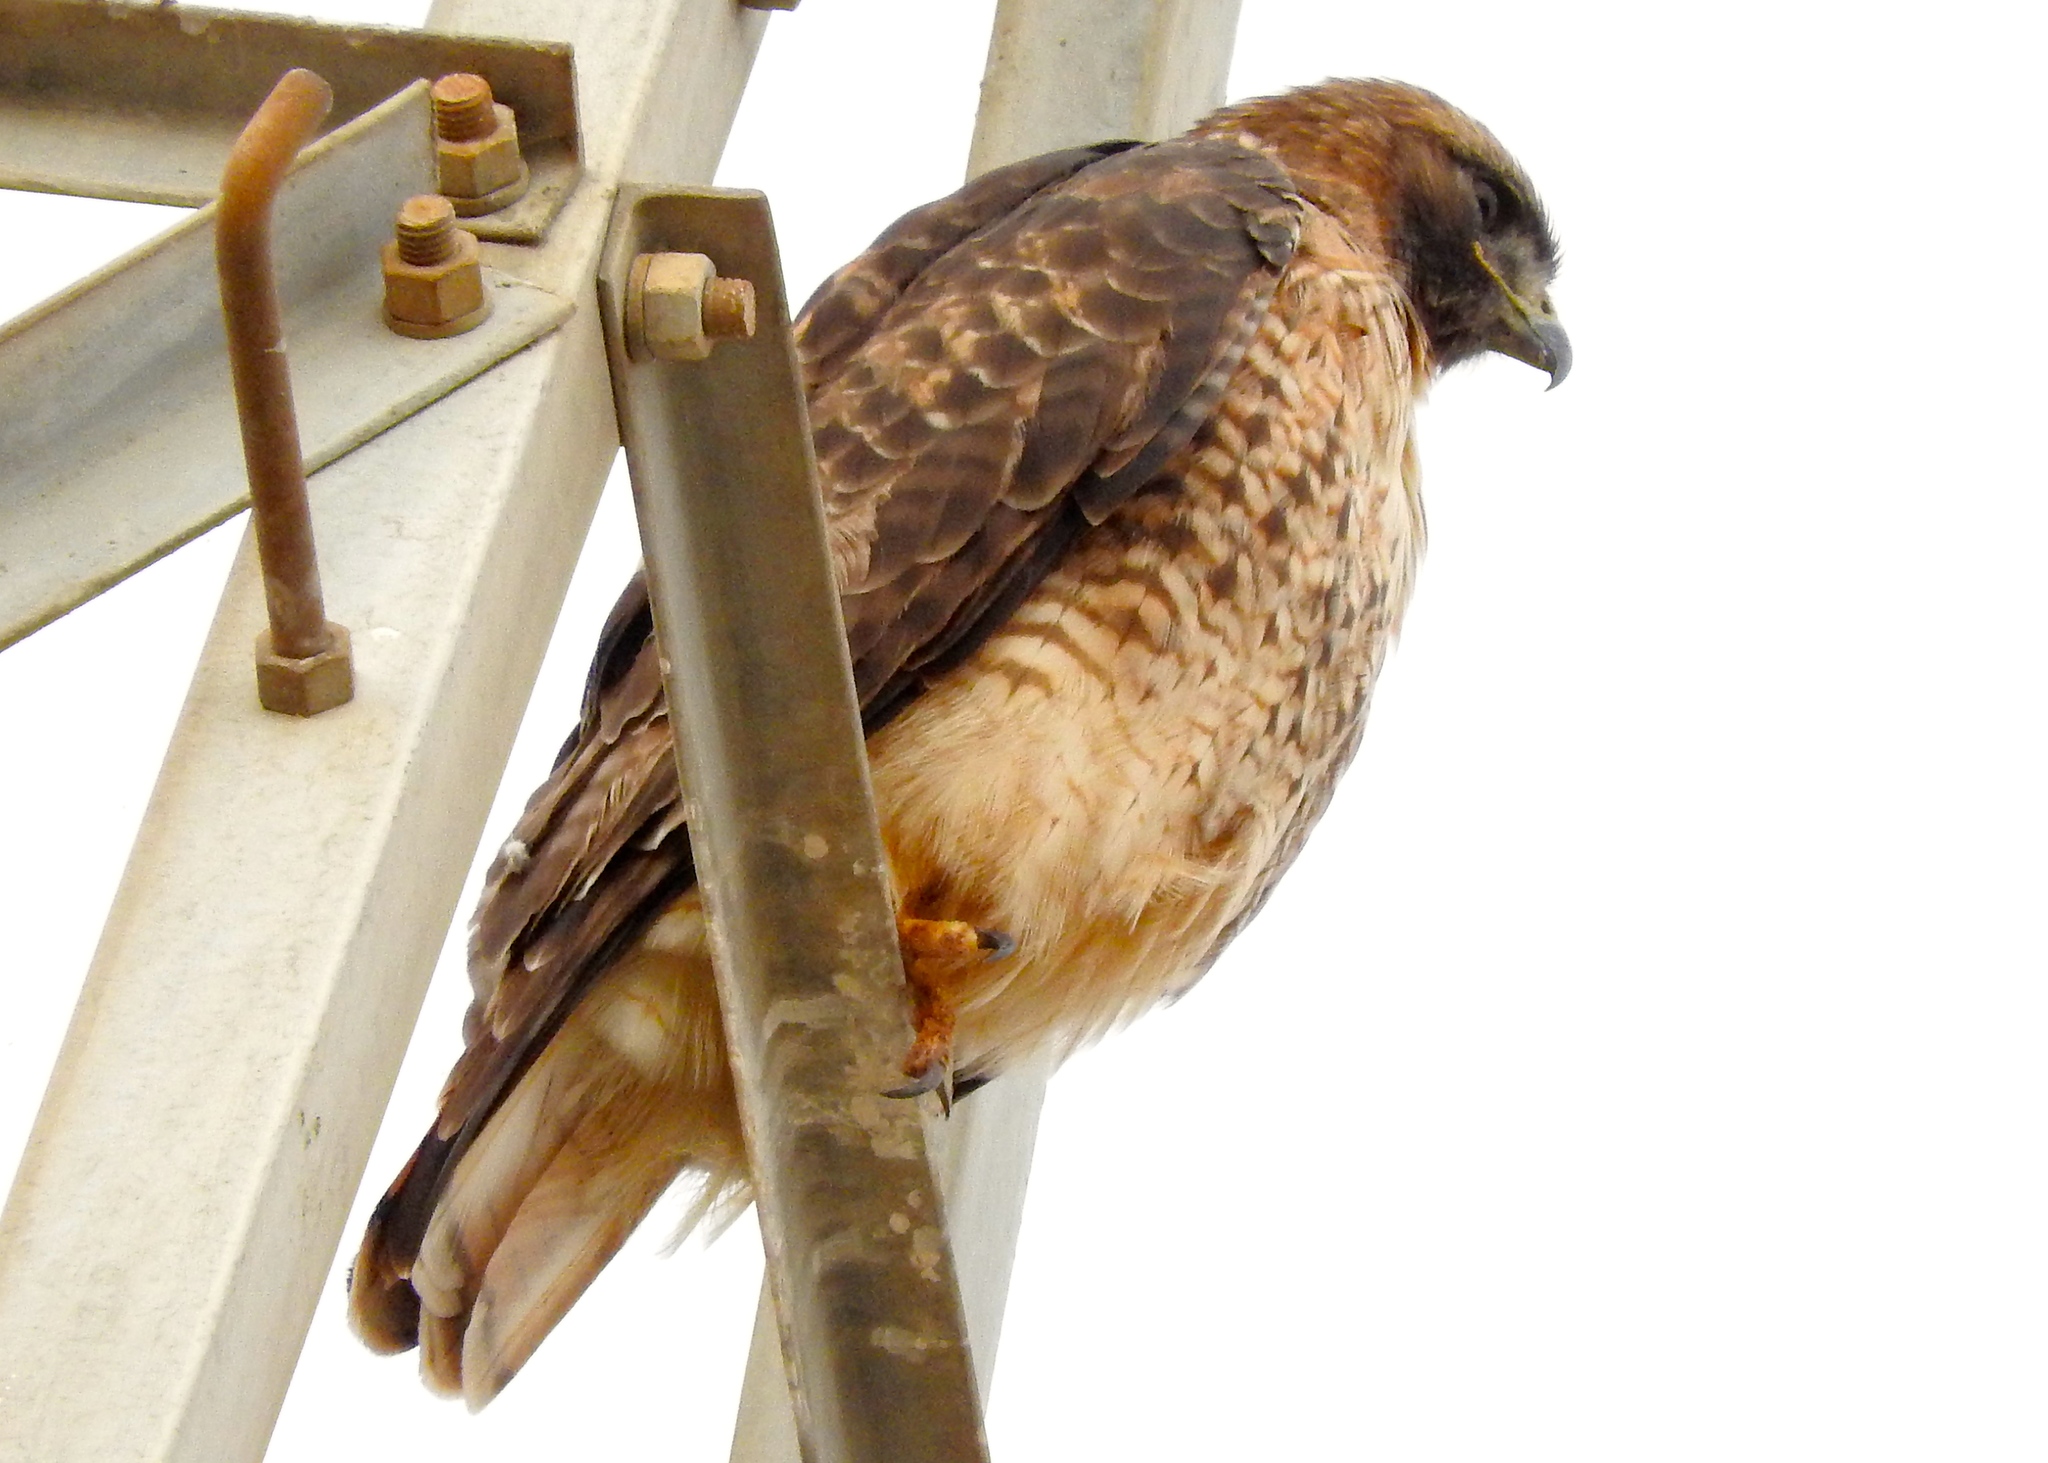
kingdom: Animalia
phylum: Chordata
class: Aves
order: Accipitriformes
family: Accipitridae
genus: Buteo
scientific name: Buteo jamaicensis
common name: Red-tailed hawk
